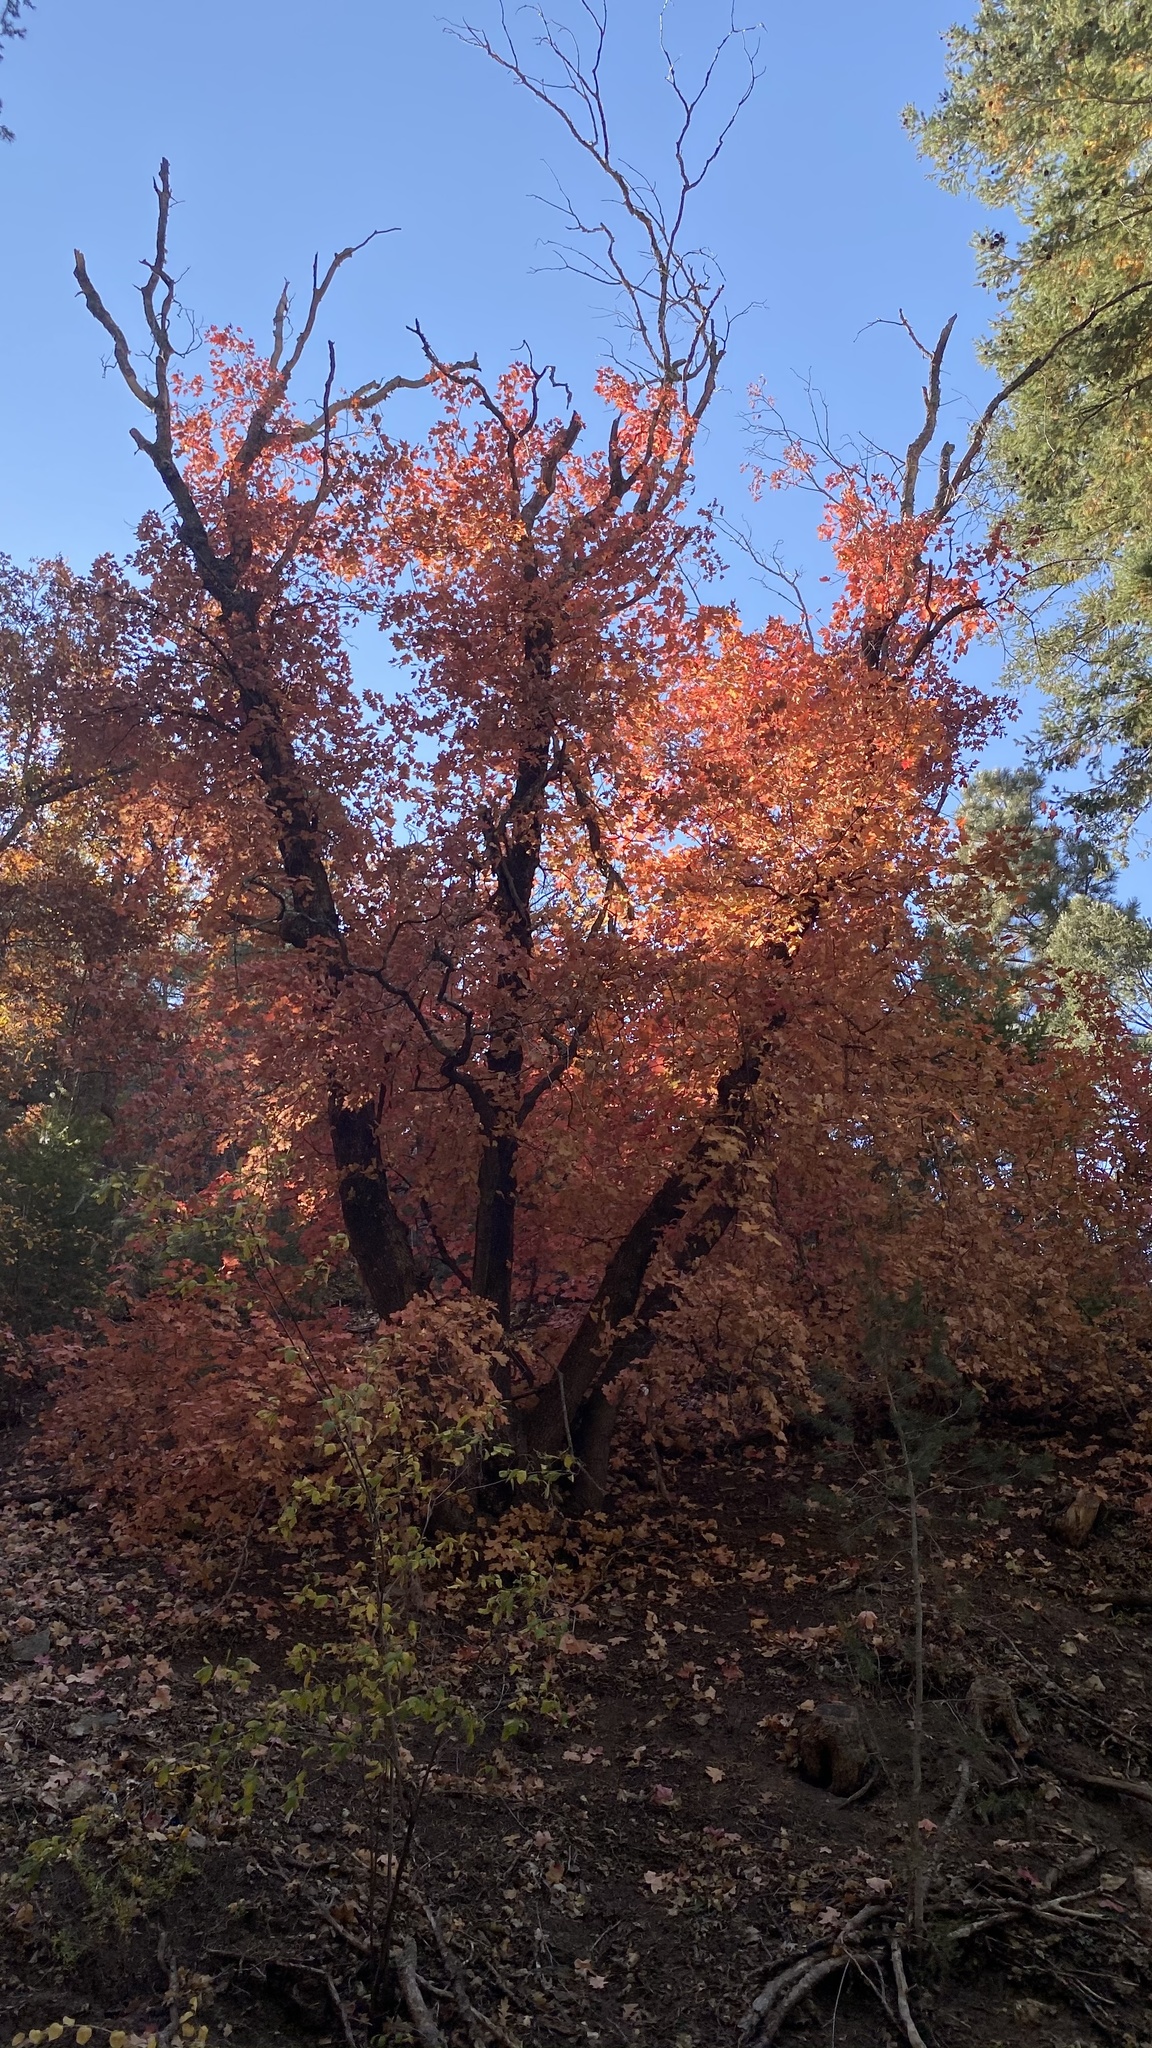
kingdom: Plantae
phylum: Tracheophyta
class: Magnoliopsida
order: Sapindales
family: Sapindaceae
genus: Acer
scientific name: Acer grandidentatum
